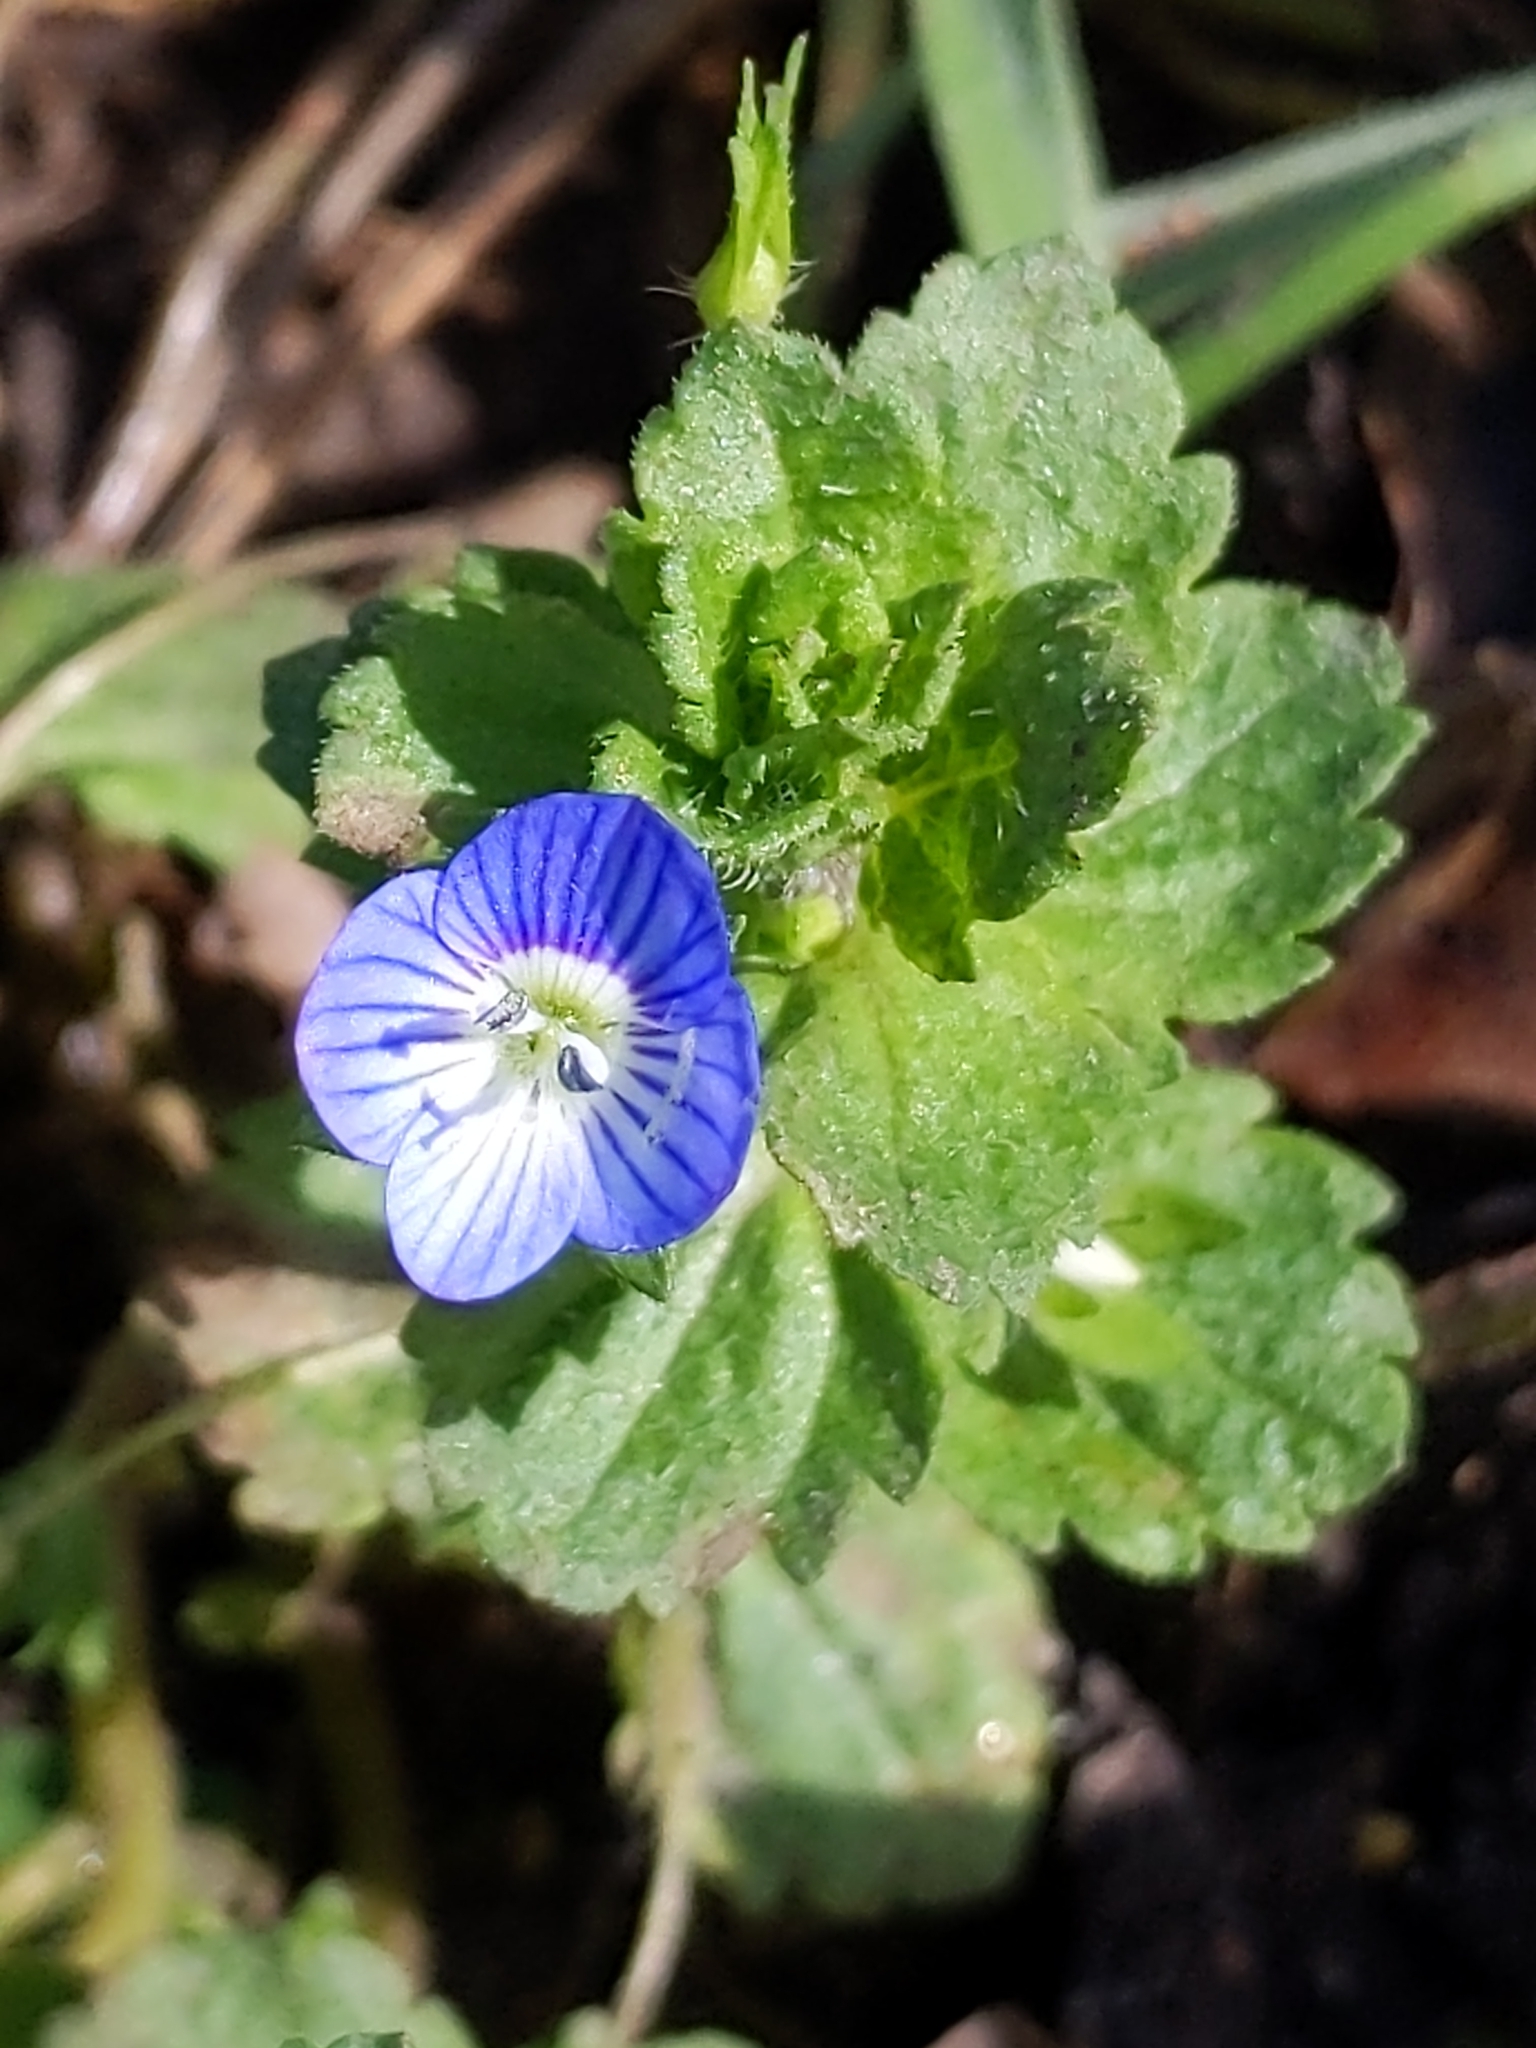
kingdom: Plantae
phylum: Tracheophyta
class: Magnoliopsida
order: Lamiales
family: Plantaginaceae
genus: Veronica
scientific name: Veronica persica
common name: Common field-speedwell
